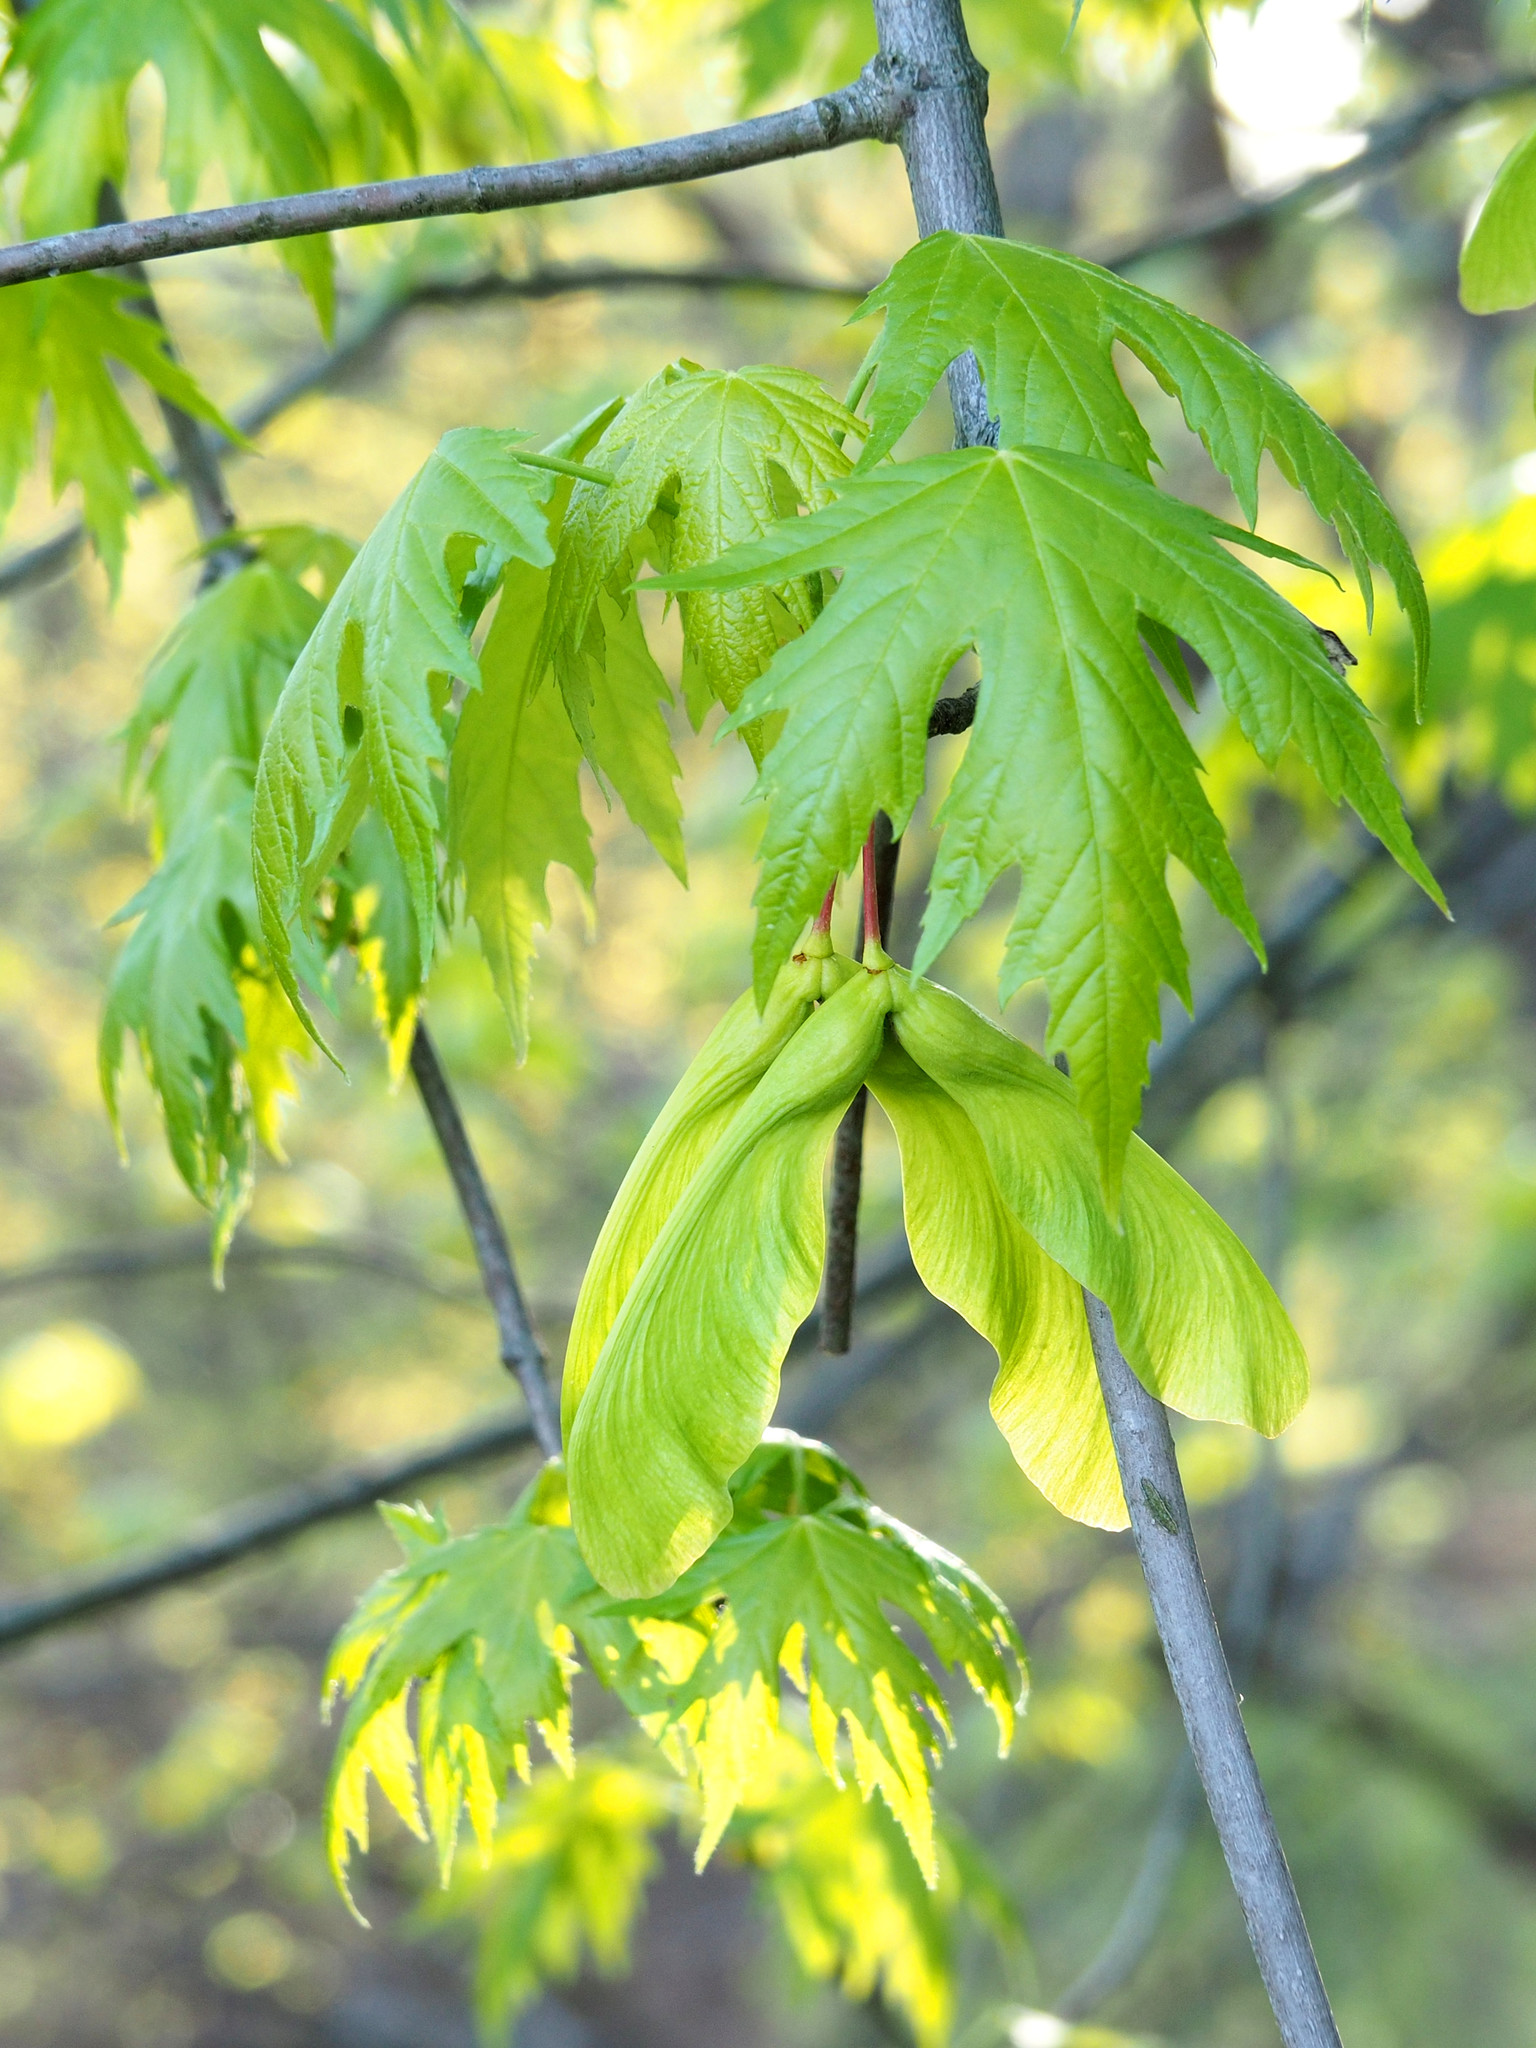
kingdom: Plantae
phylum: Tracheophyta
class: Magnoliopsida
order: Sapindales
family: Sapindaceae
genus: Acer
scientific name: Acer saccharinum
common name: Silver maple
